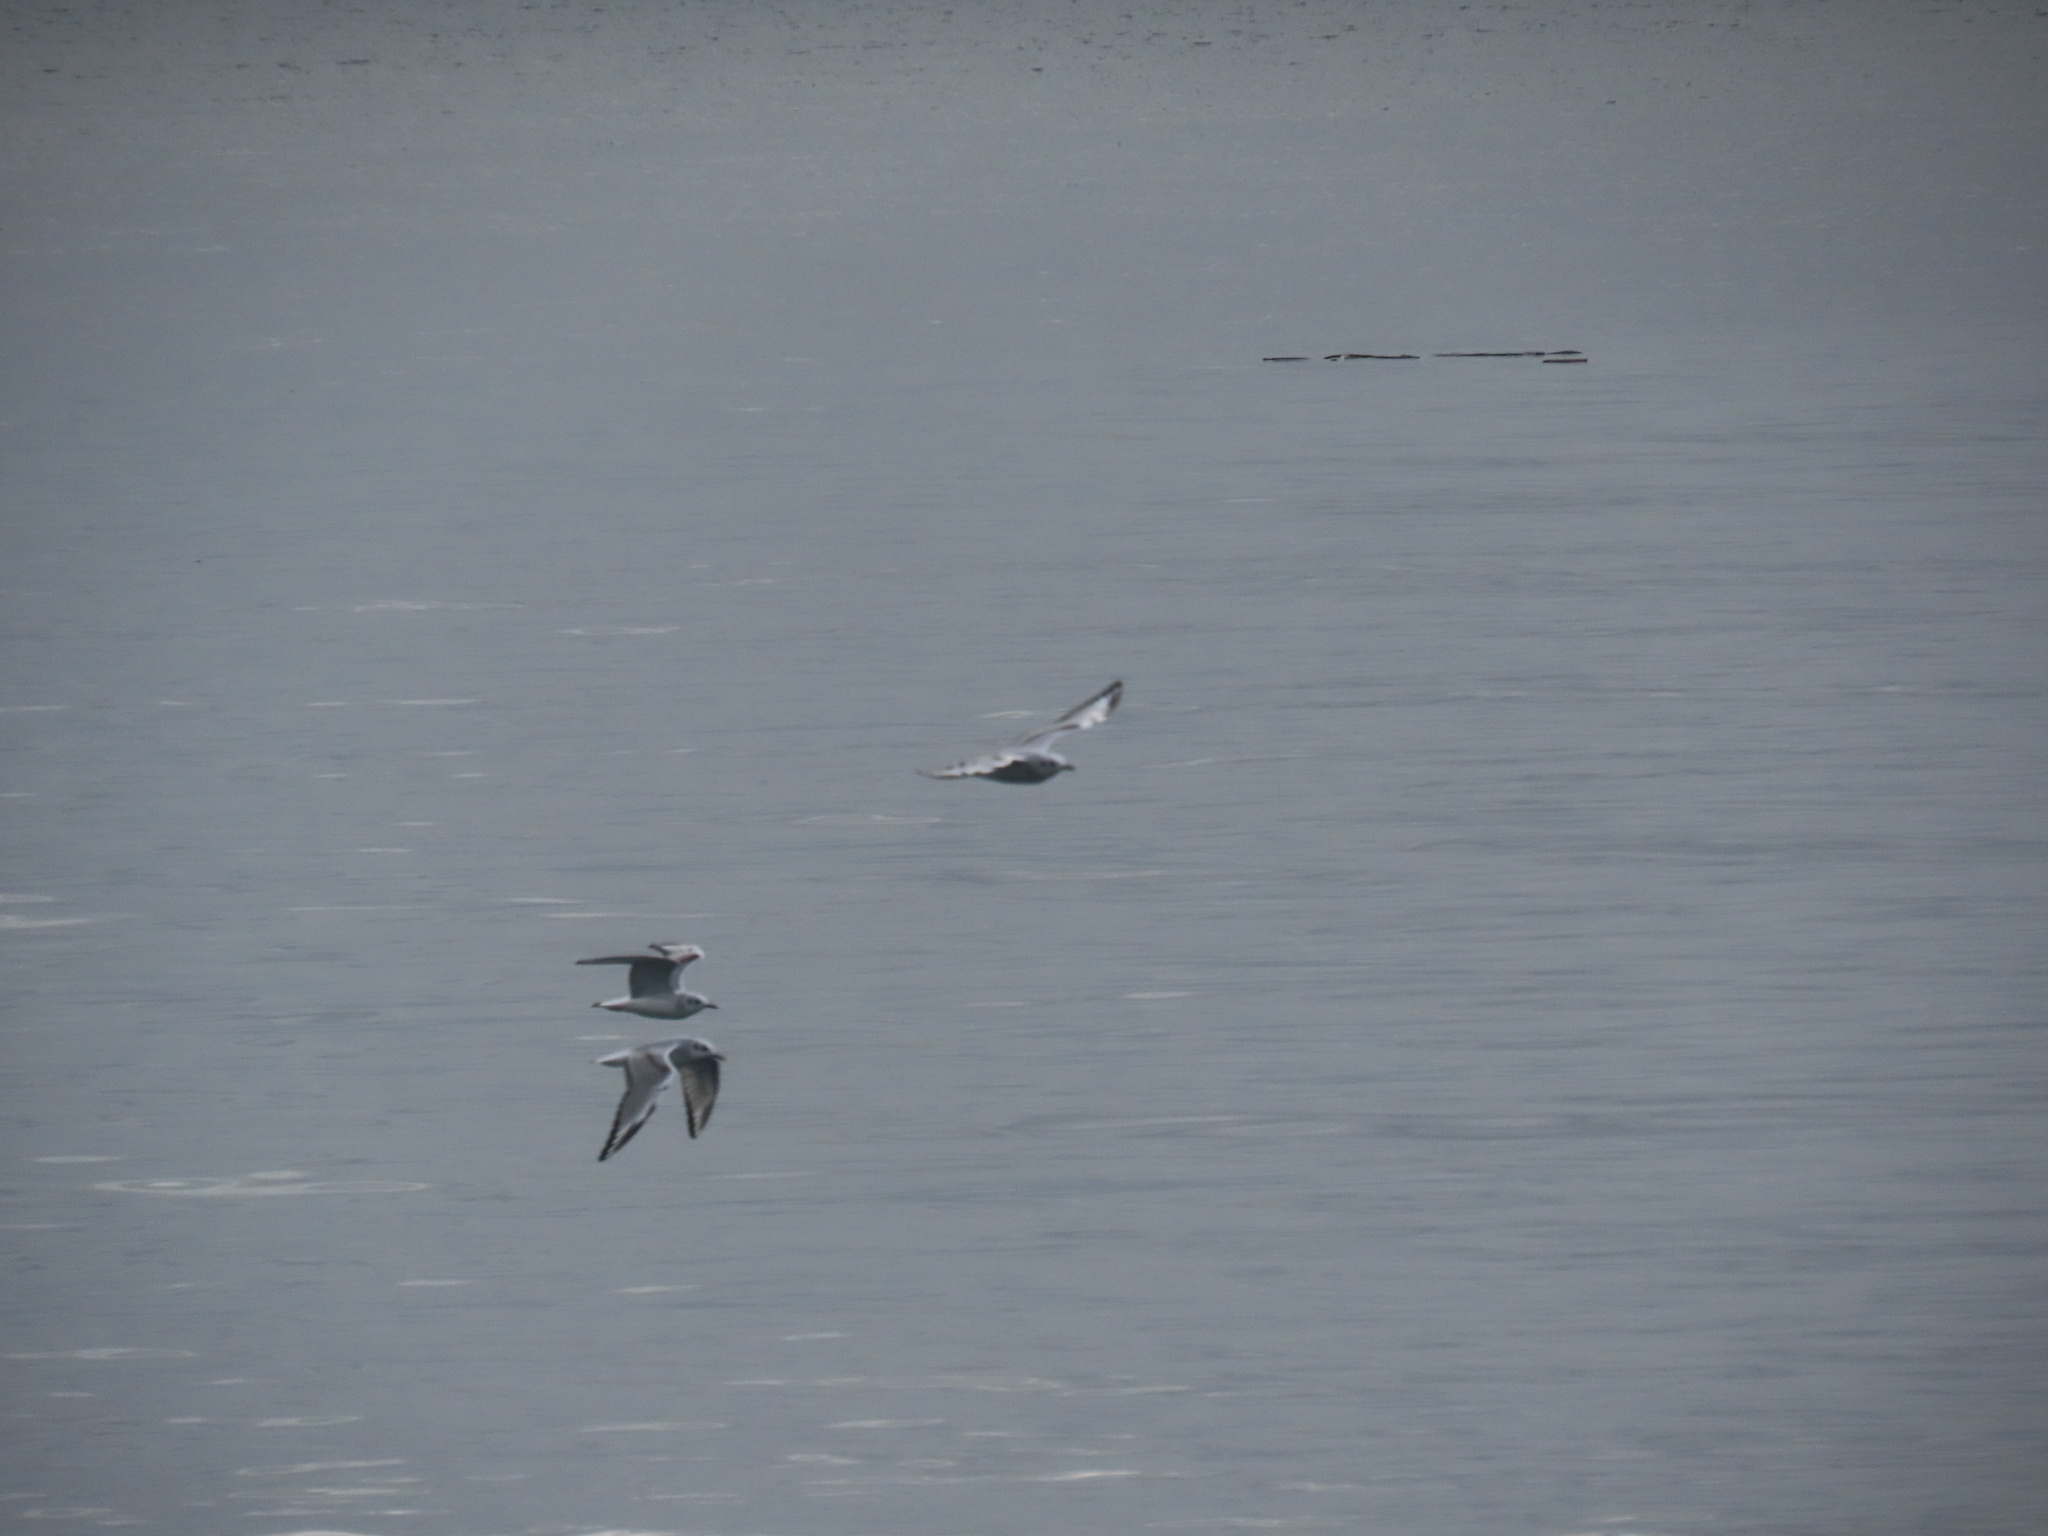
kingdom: Animalia
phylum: Chordata
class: Aves
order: Charadriiformes
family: Laridae
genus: Chroicocephalus
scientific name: Chroicocephalus philadelphia
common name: Bonaparte's gull
